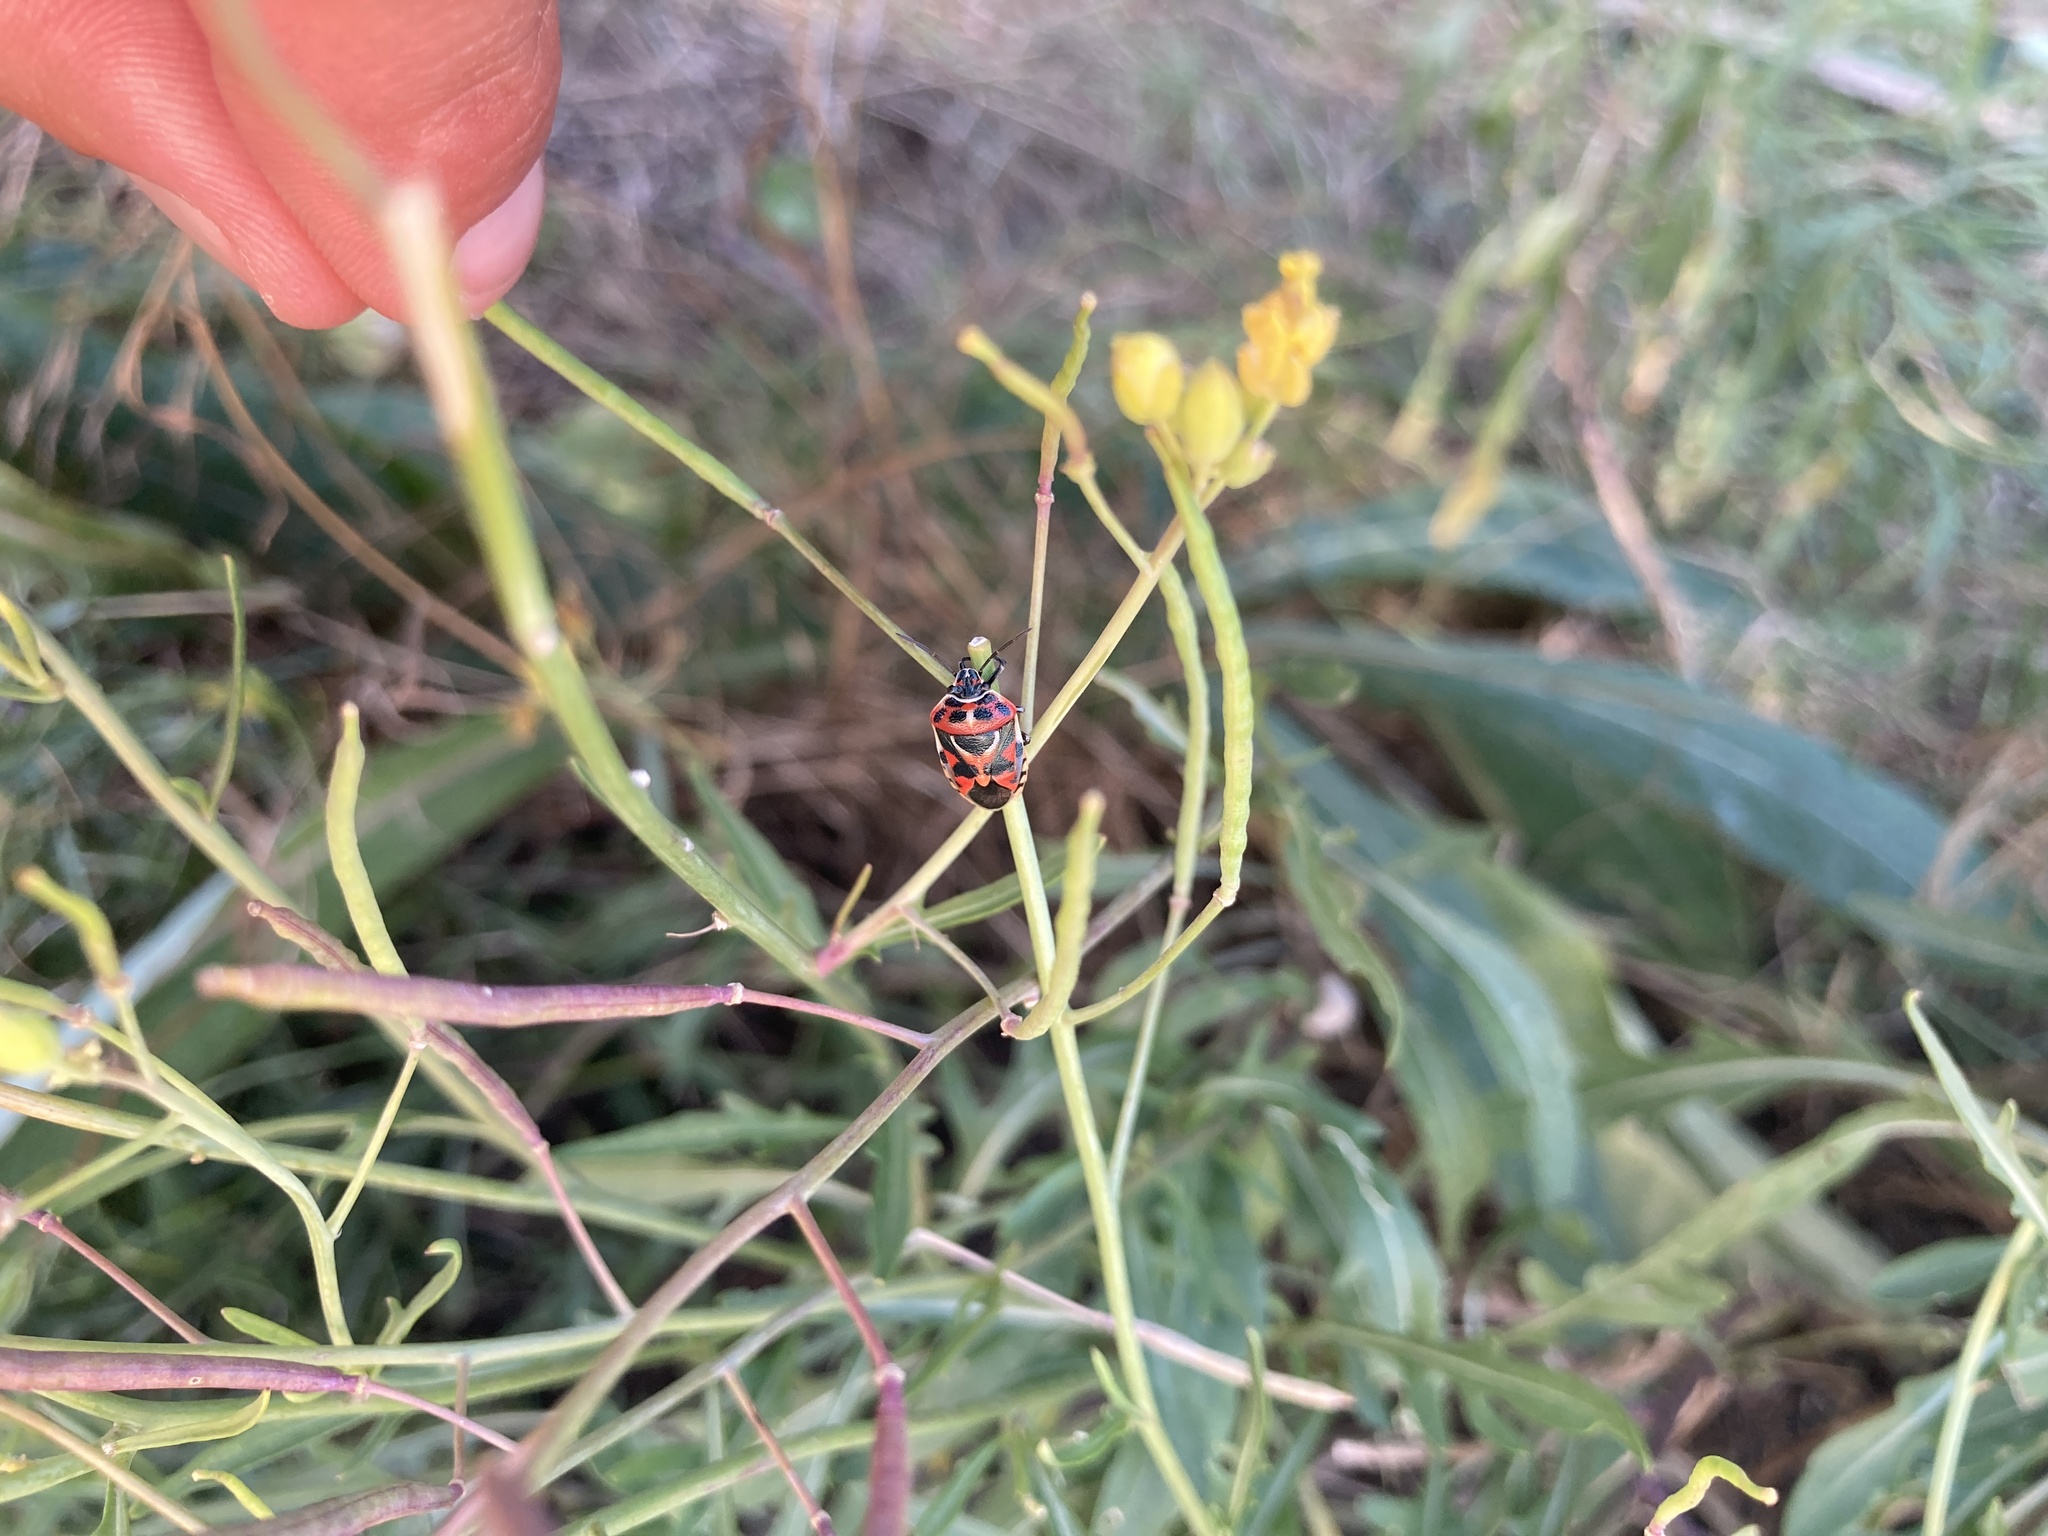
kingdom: Animalia
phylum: Arthropoda
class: Insecta
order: Hemiptera
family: Pentatomidae
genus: Eurydema
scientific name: Eurydema ornata
